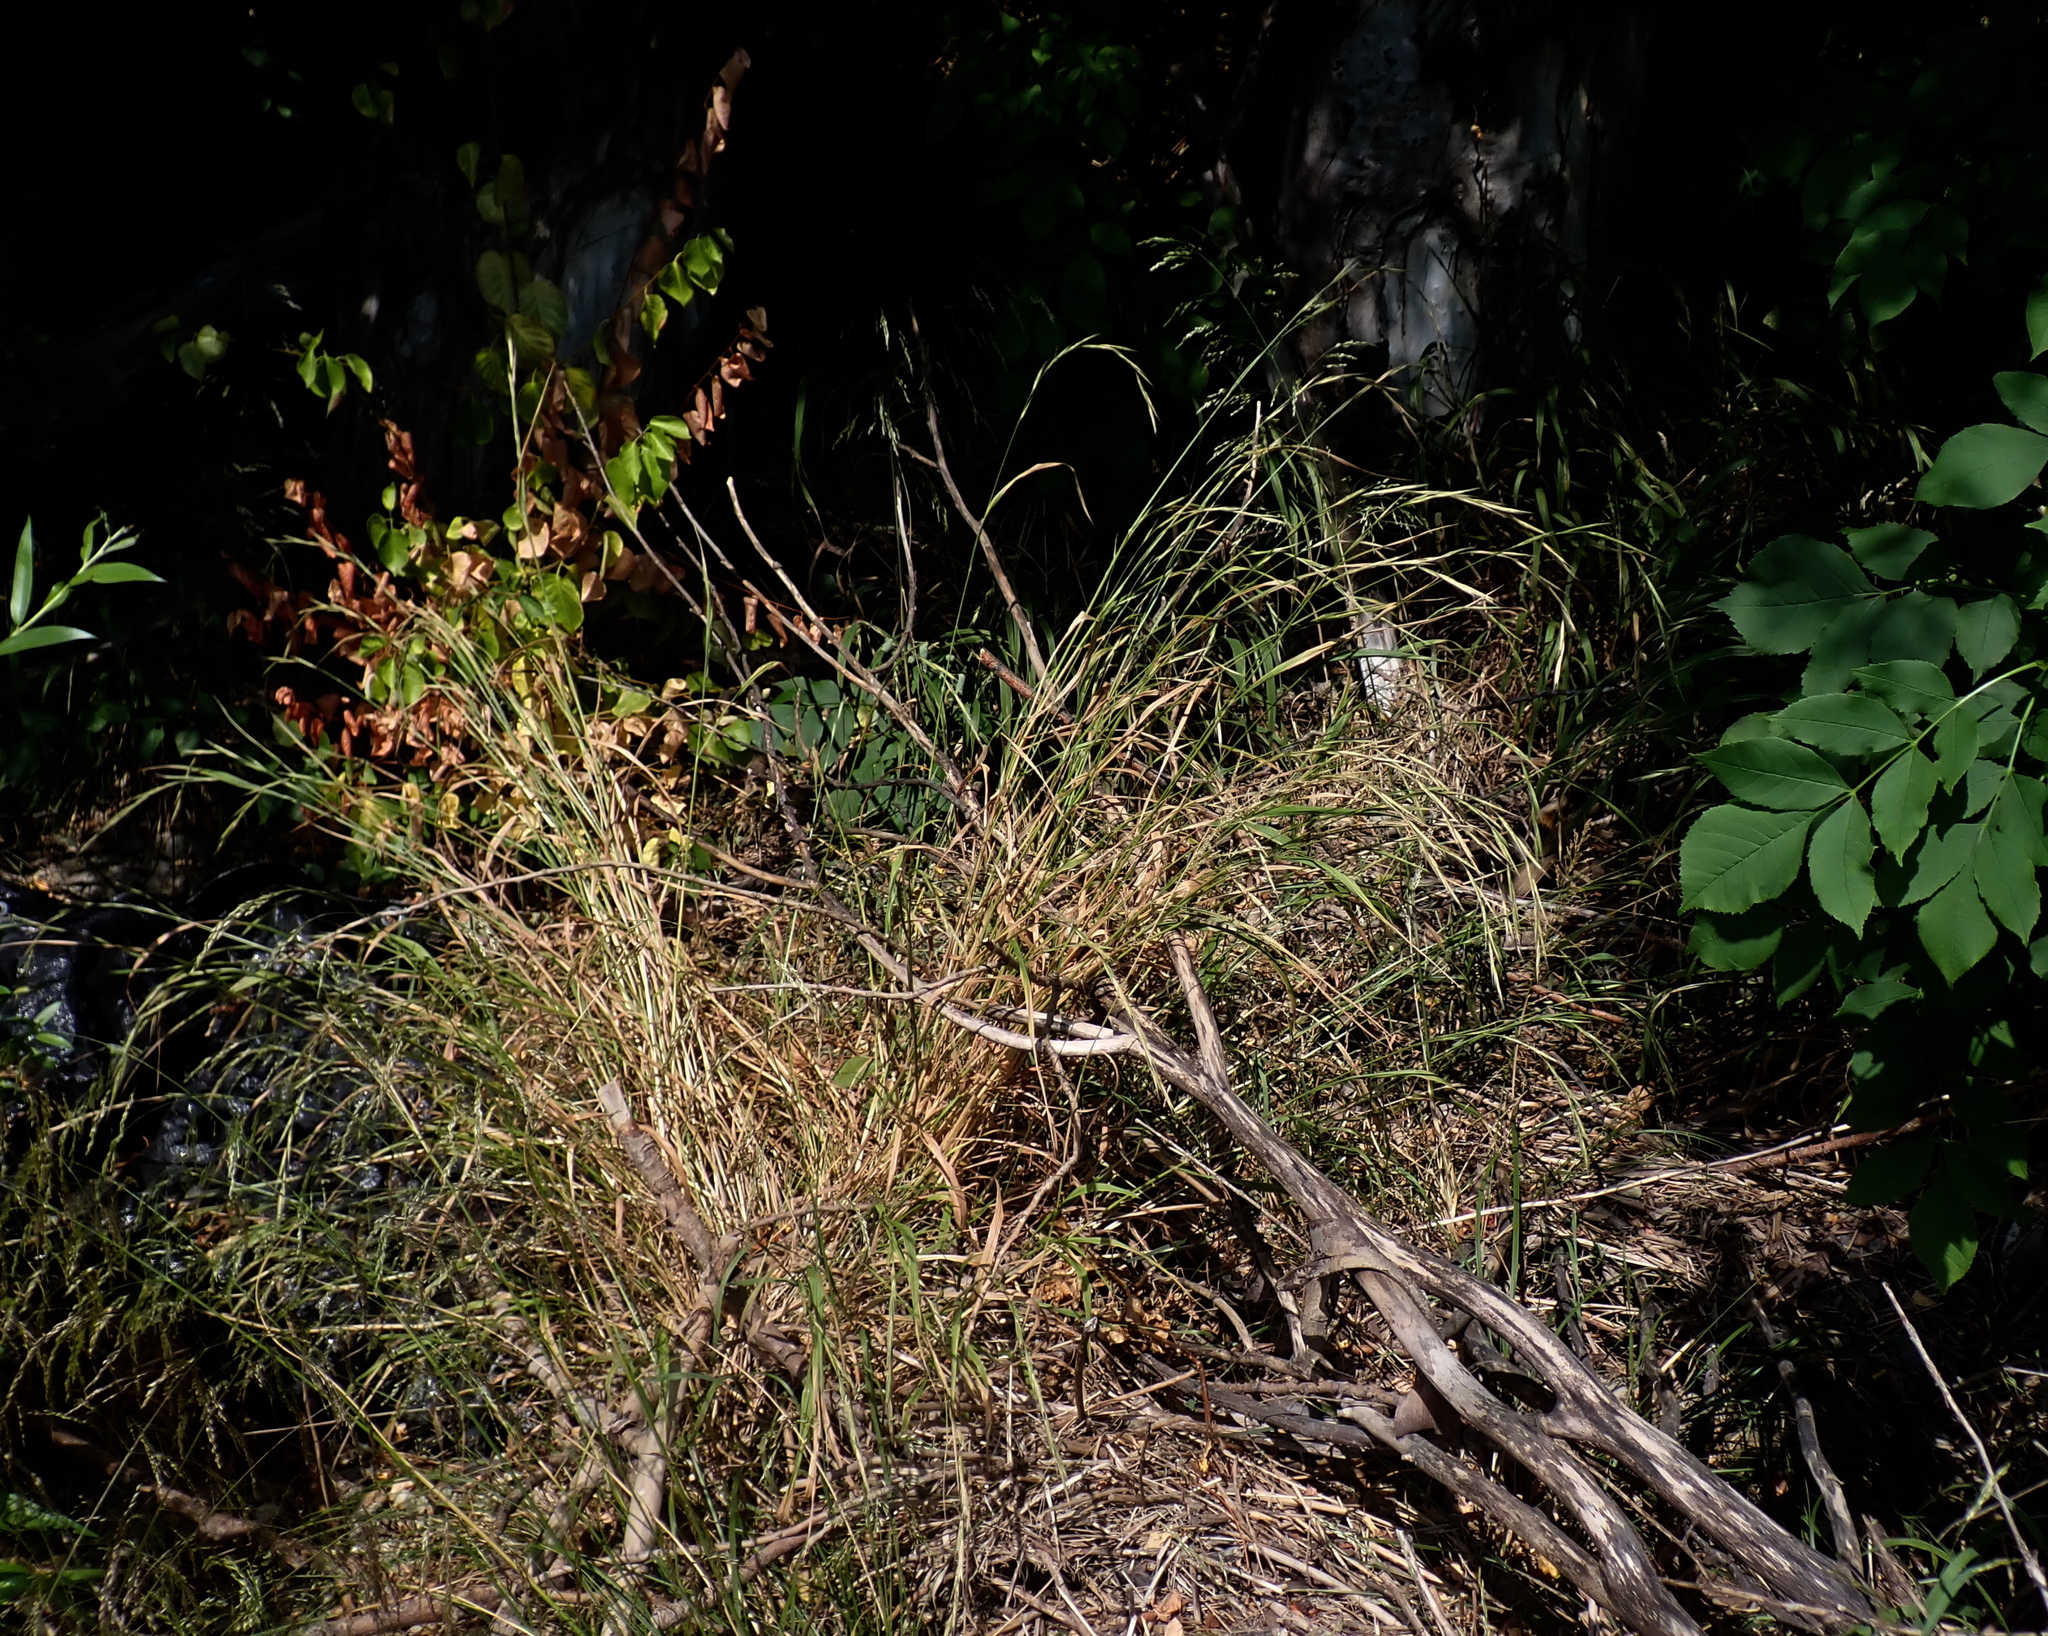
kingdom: Plantae
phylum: Tracheophyta
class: Liliopsida
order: Poales
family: Poaceae
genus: Brachypodium
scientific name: Brachypodium sylvaticum
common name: False-brome
